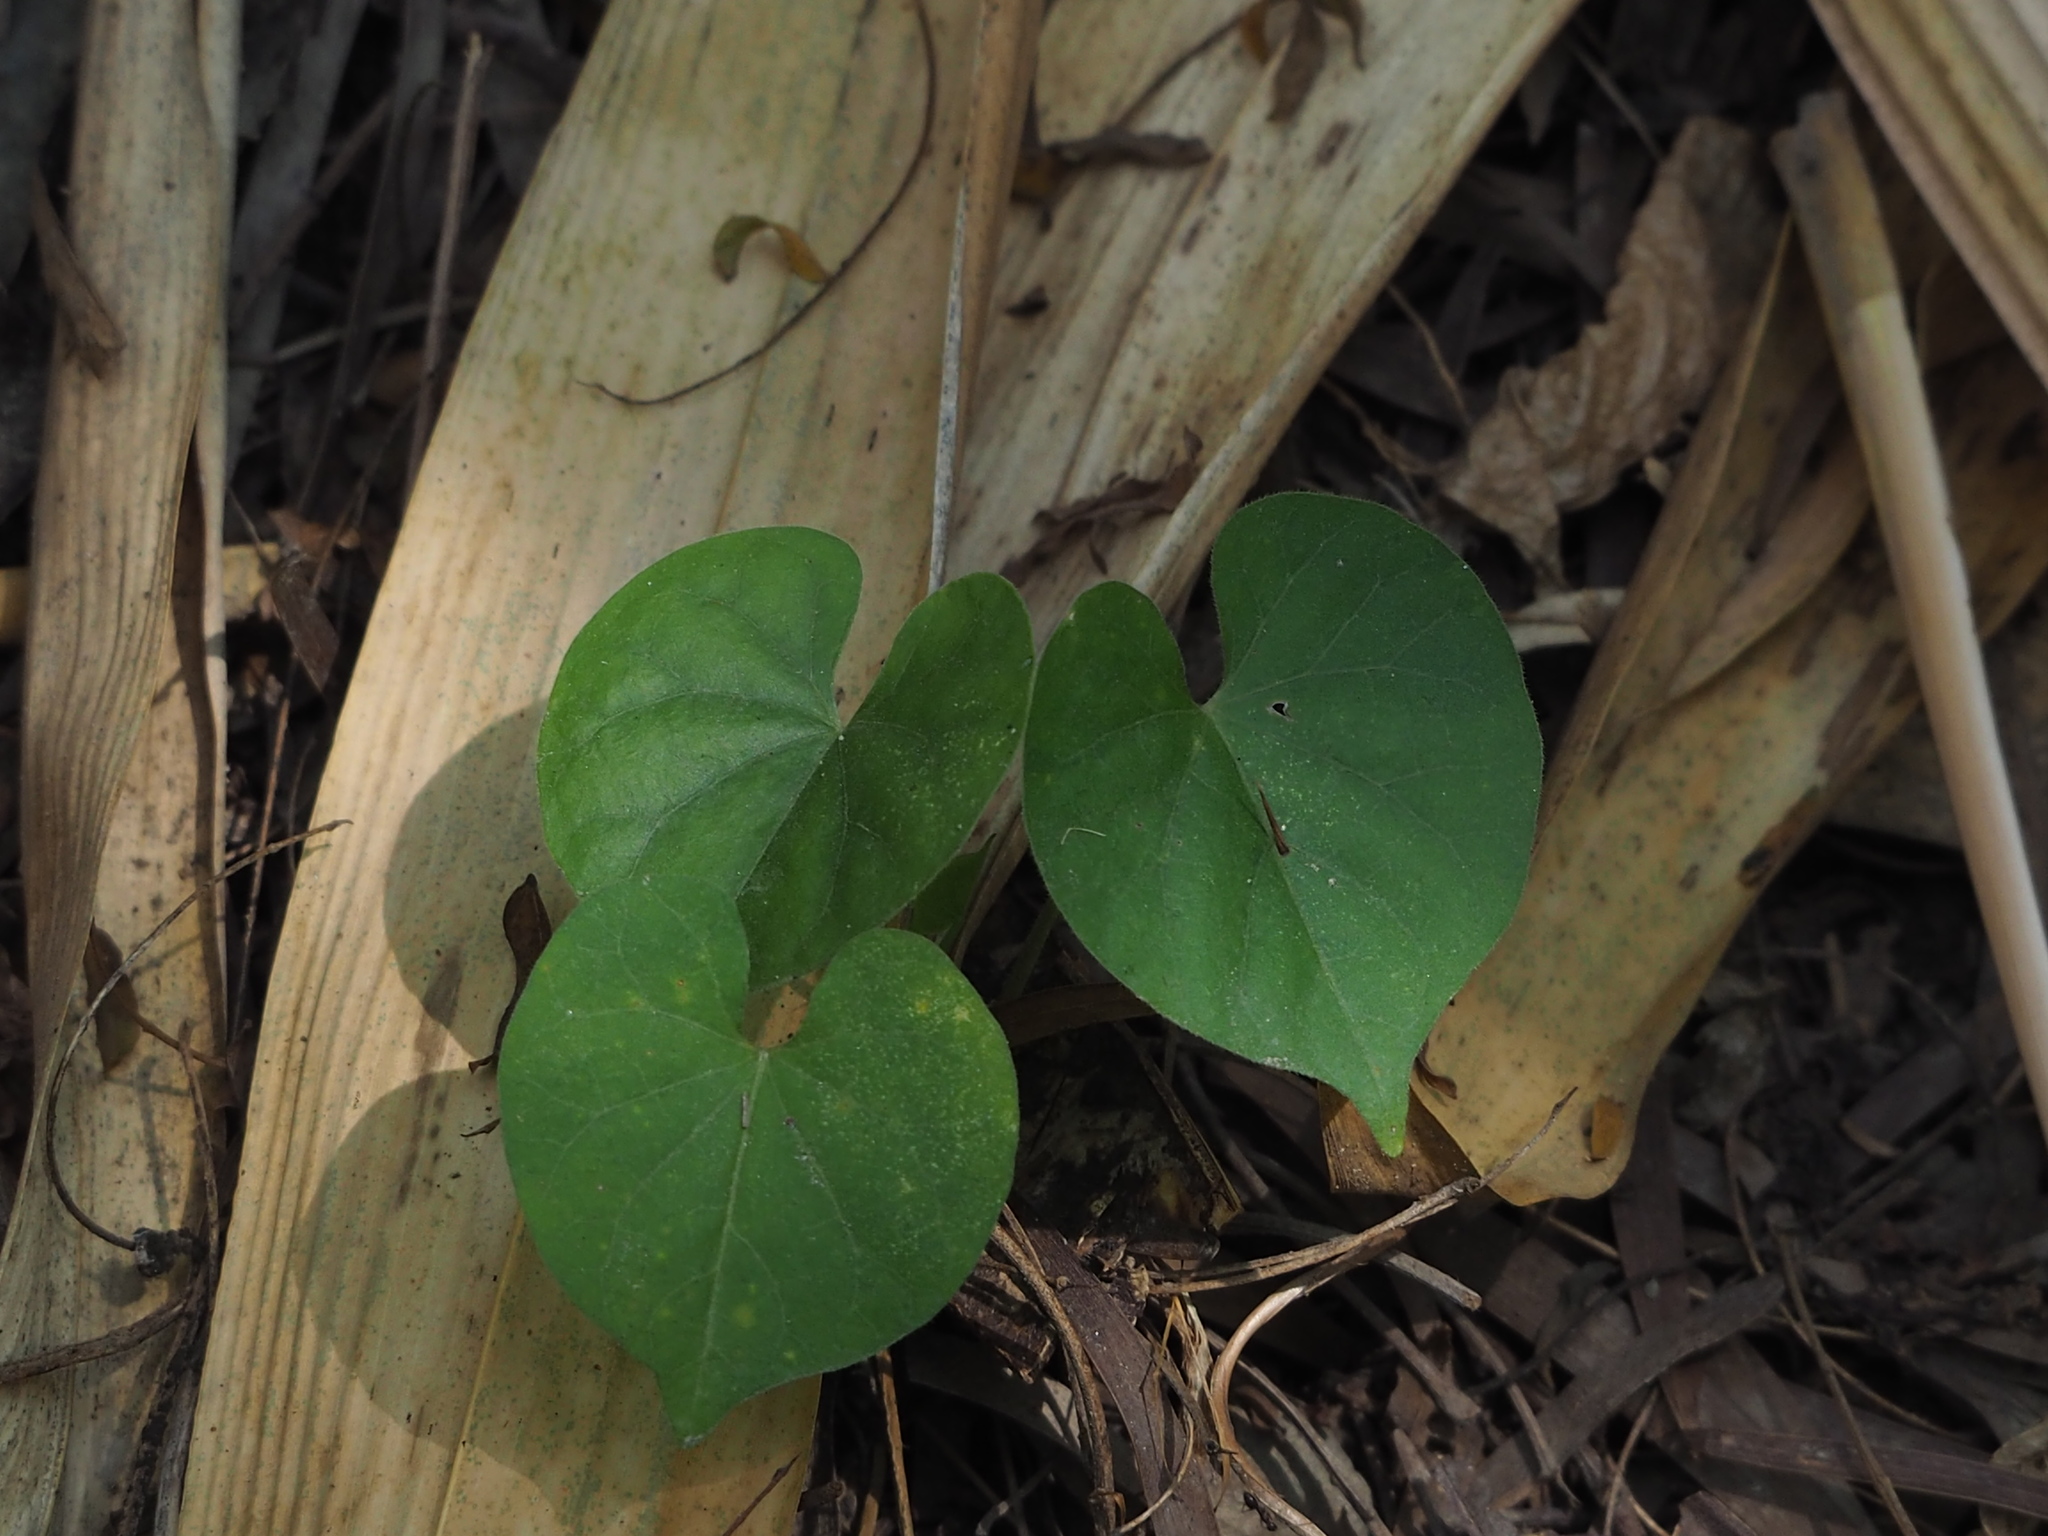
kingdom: Plantae
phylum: Tracheophyta
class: Magnoliopsida
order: Solanales
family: Convolvulaceae
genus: Ipomoea
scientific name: Ipomoea obscura
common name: Obscure morning-glory
